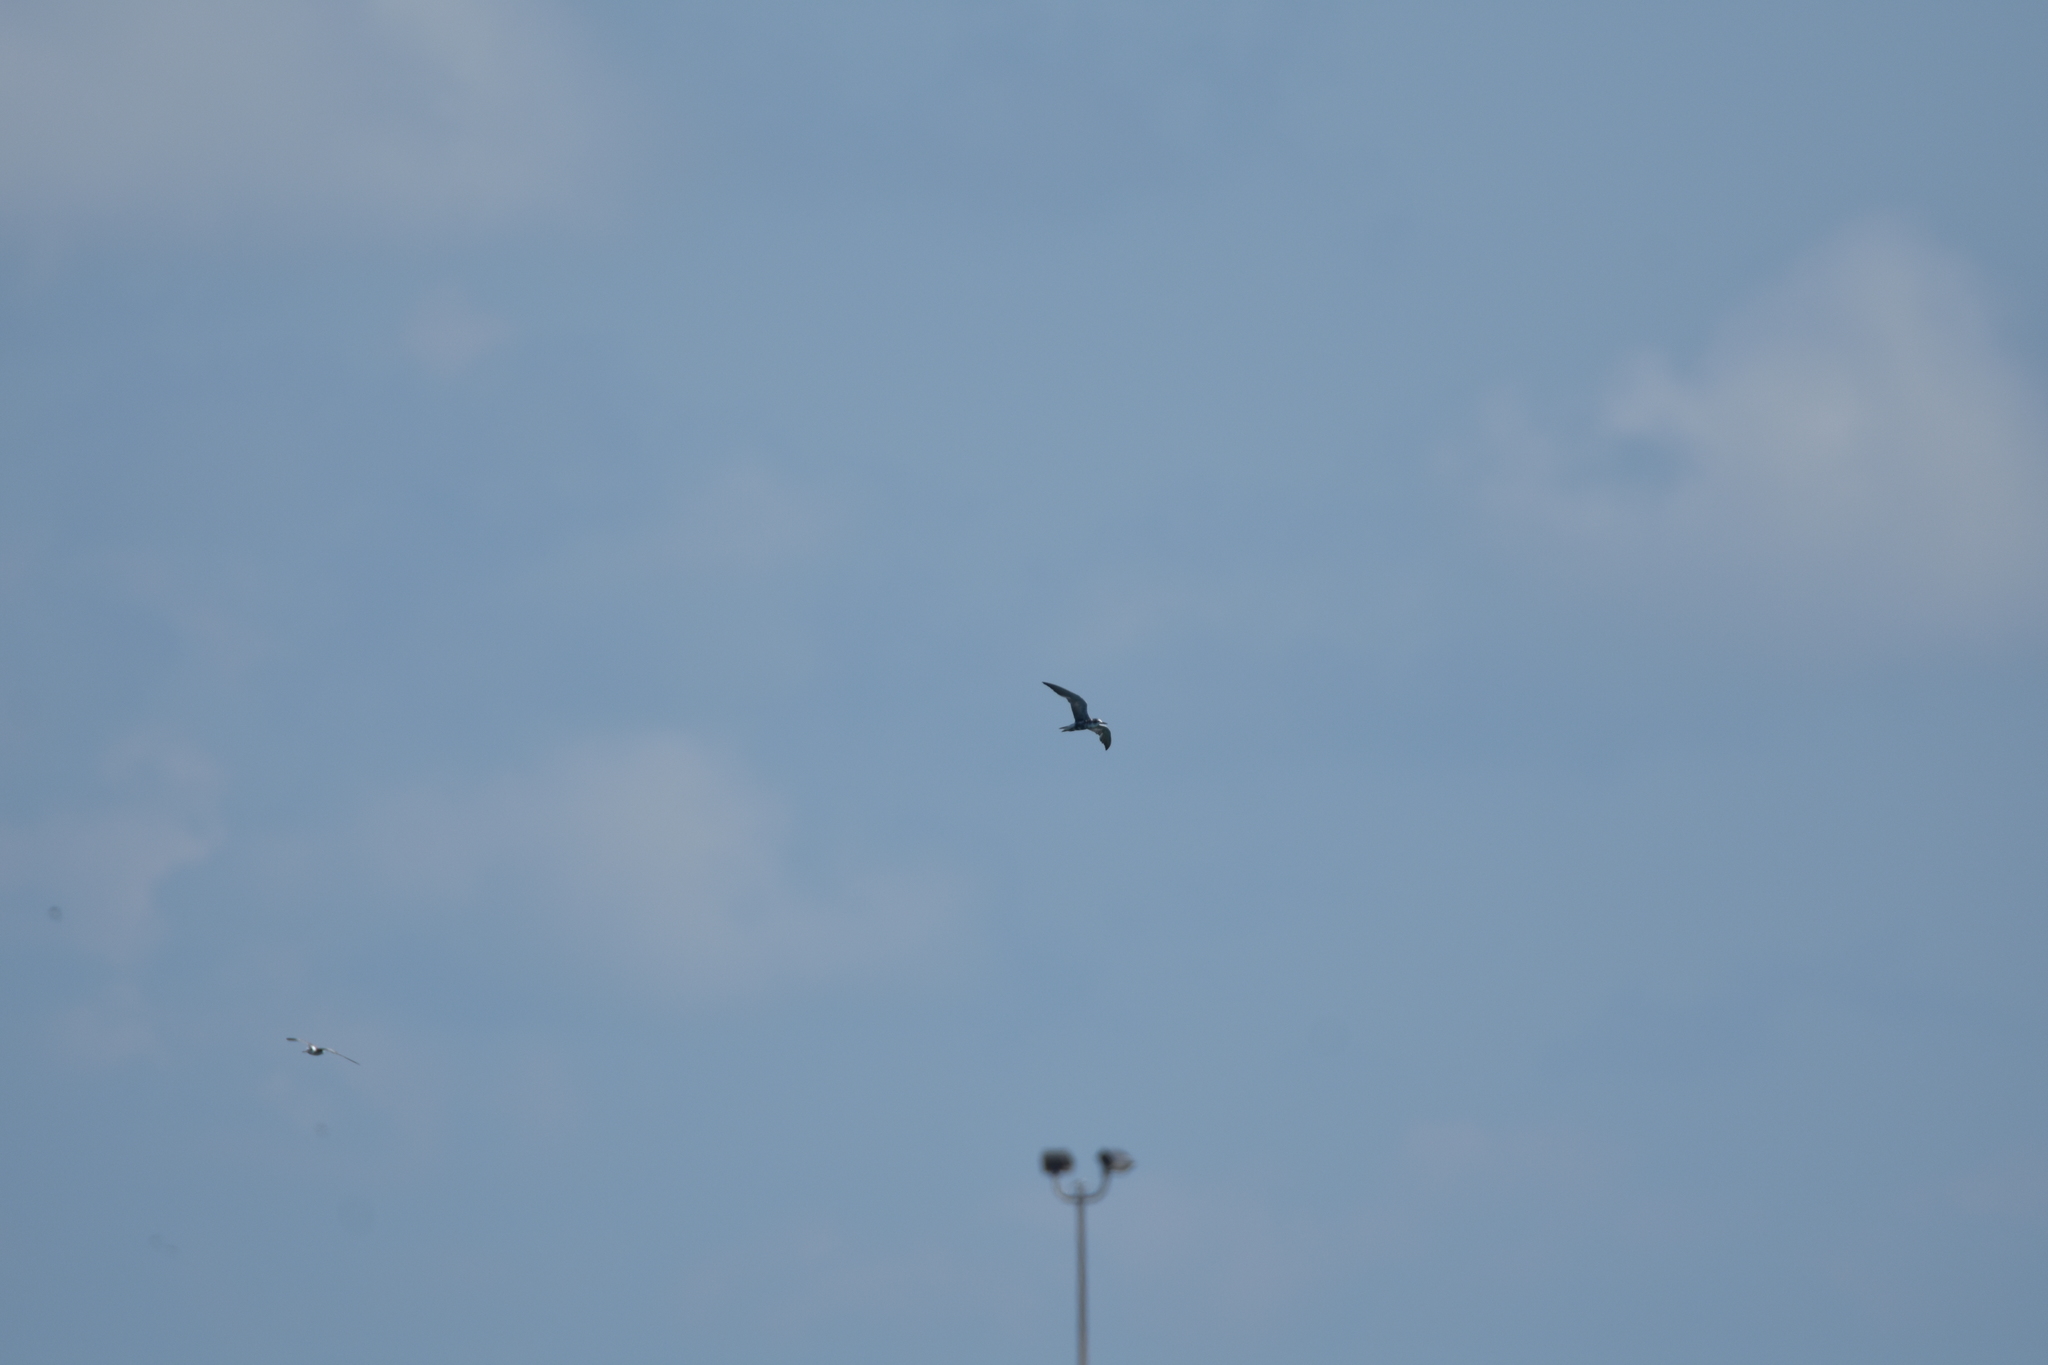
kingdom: Animalia
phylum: Chordata
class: Aves
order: Charadriiformes
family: Laridae
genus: Chlidonias
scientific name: Chlidonias niger
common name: Black tern
